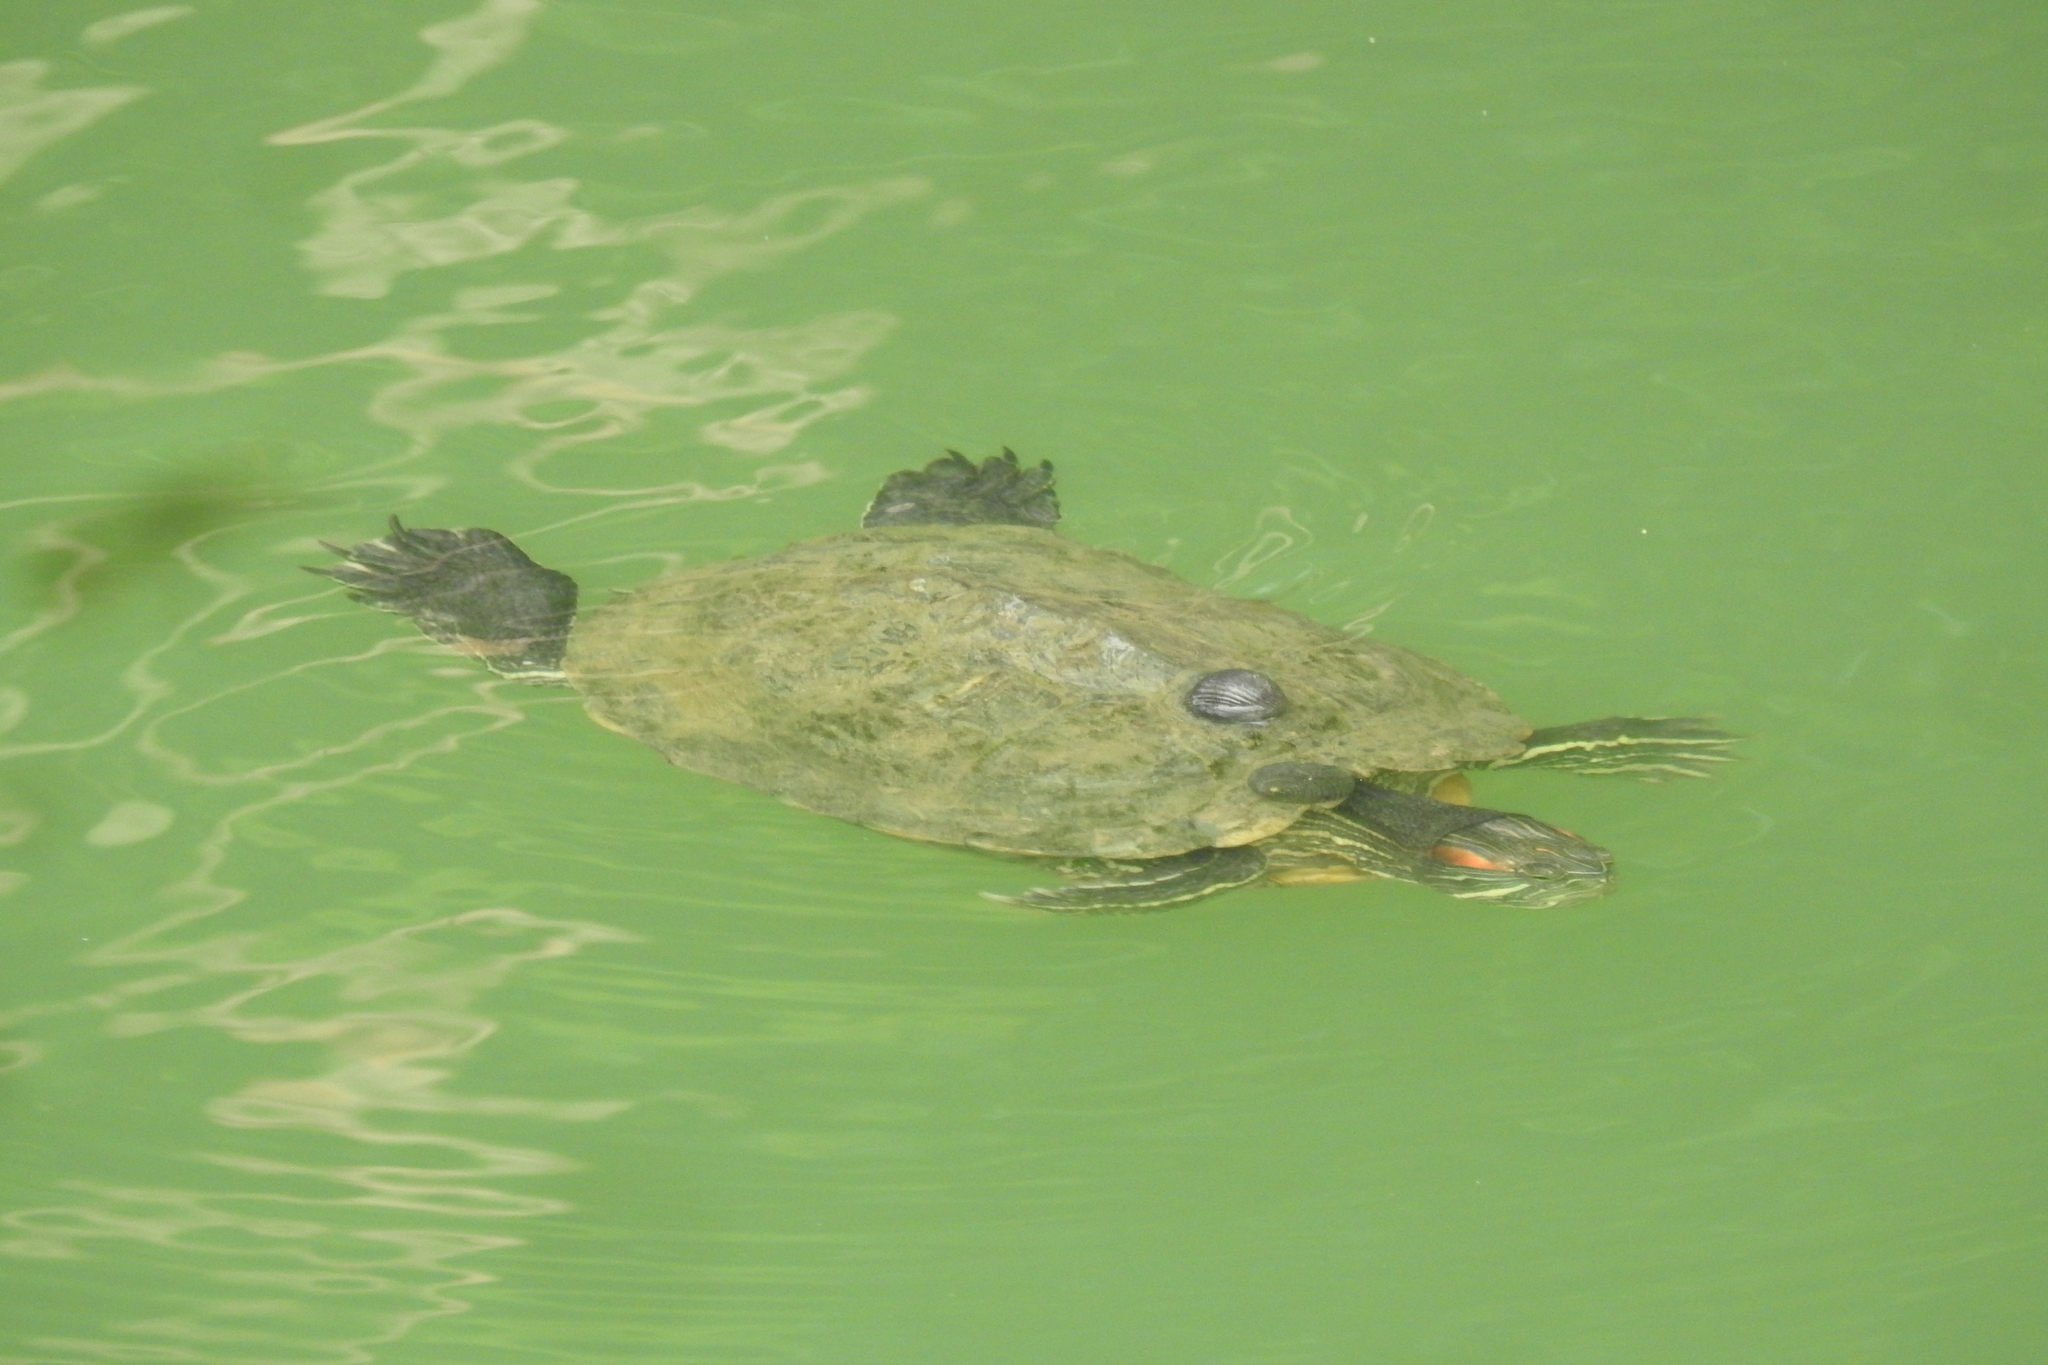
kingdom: Animalia
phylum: Chordata
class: Testudines
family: Emydidae
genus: Trachemys
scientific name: Trachemys scripta
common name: Slider
